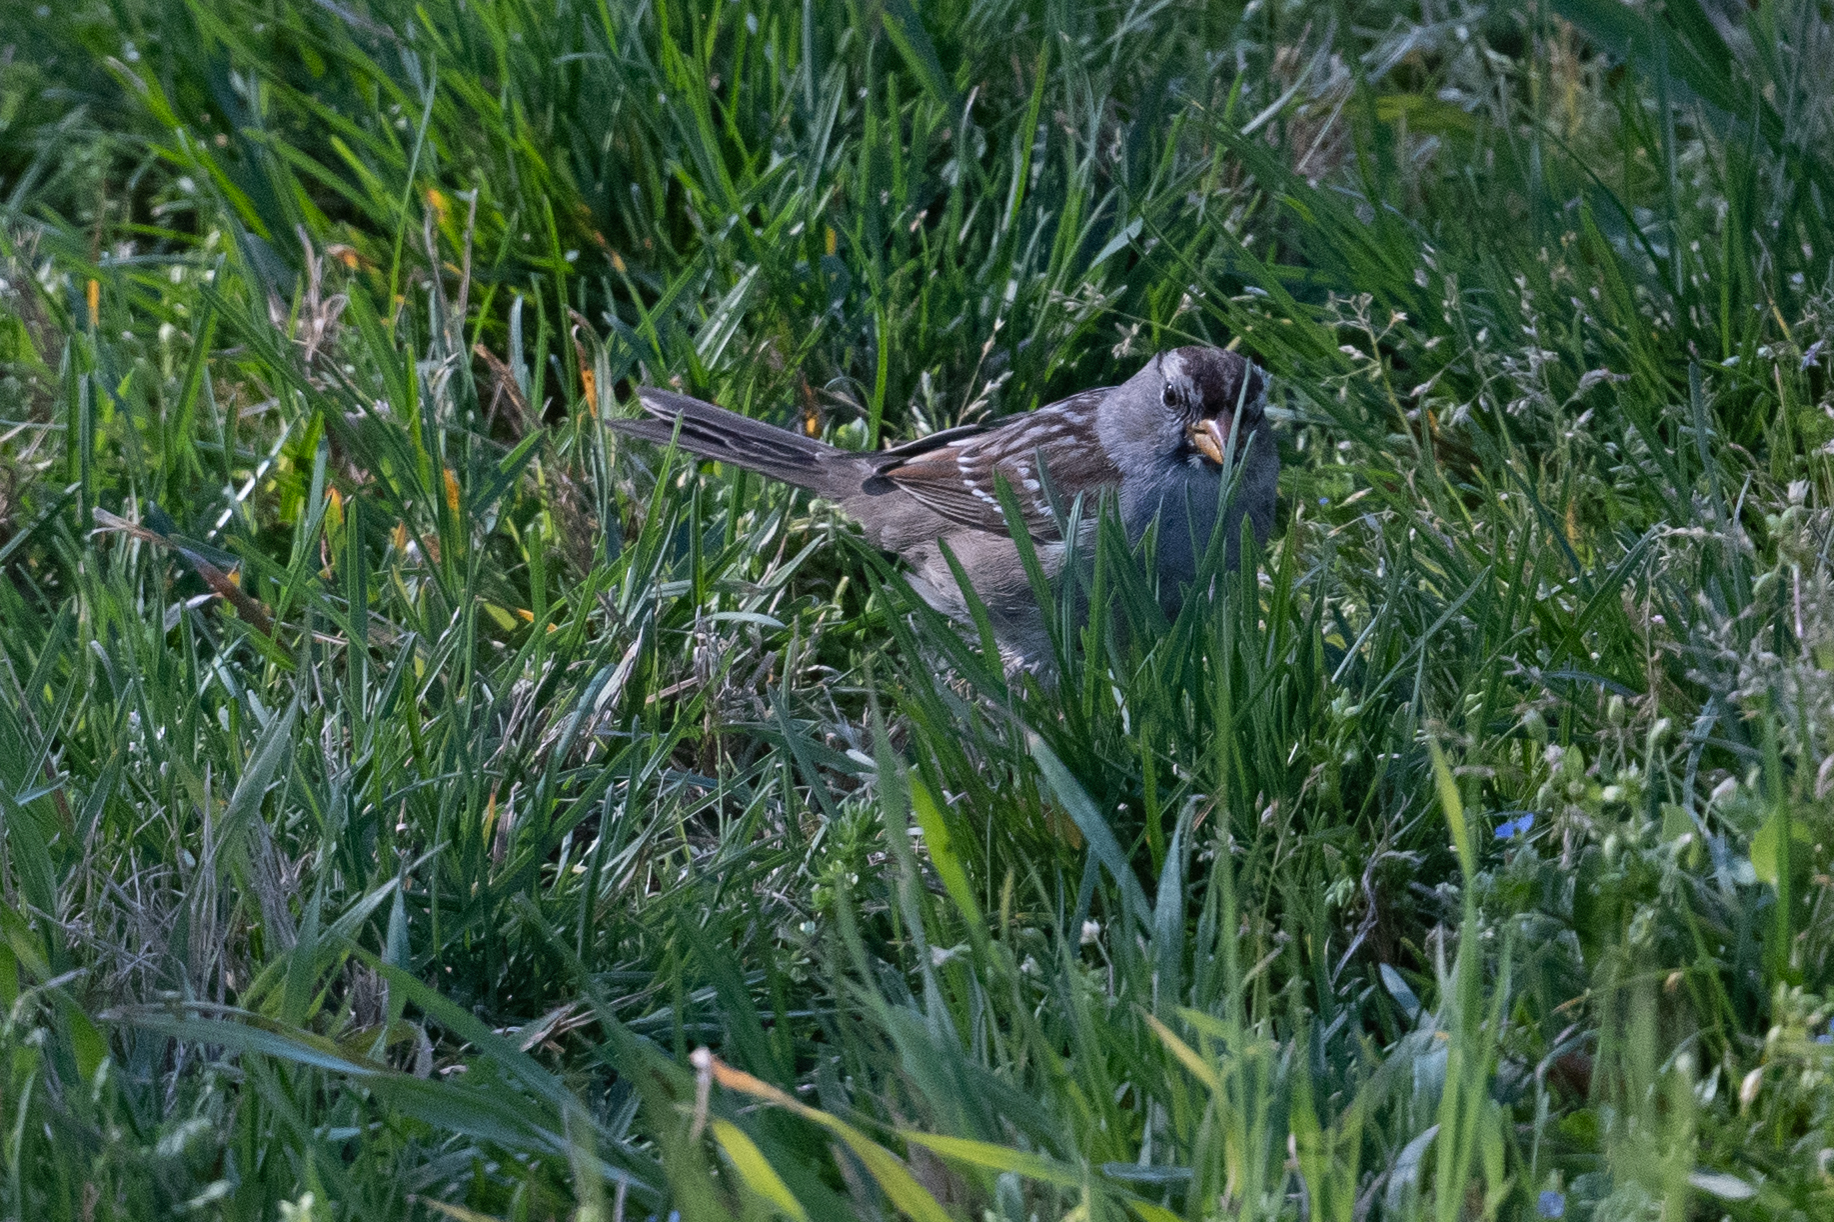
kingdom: Animalia
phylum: Chordata
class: Aves
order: Passeriformes
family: Passerellidae
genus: Zonotrichia
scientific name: Zonotrichia leucophrys
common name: White-crowned sparrow
